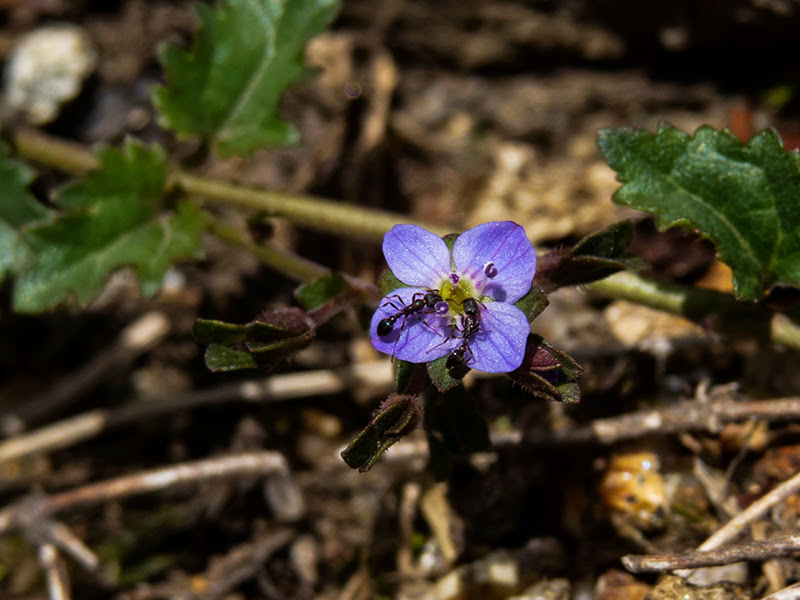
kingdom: Plantae
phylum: Tracheophyta
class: Magnoliopsida
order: Lamiales
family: Plantaginaceae
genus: Veronica
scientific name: Veronica plebeia
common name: Speedwell
